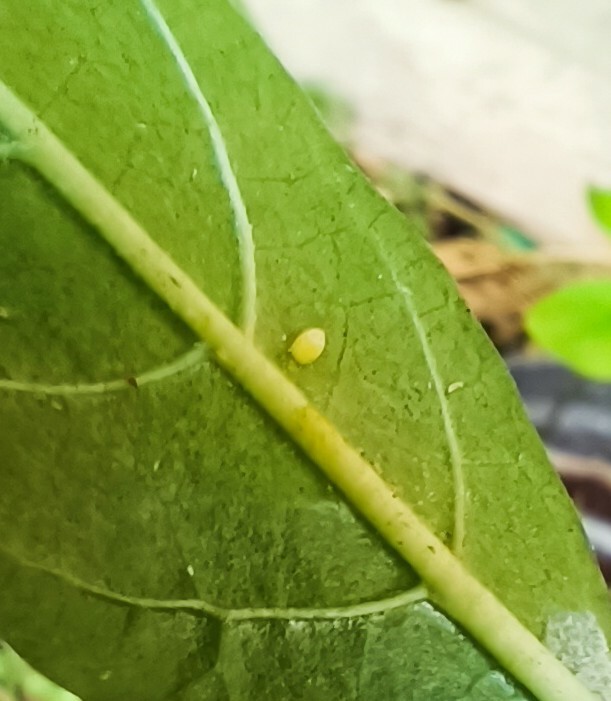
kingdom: Animalia
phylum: Arthropoda
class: Insecta
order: Lepidoptera
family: Nymphalidae
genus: Danaus
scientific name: Danaus plexippus
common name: Monarch
